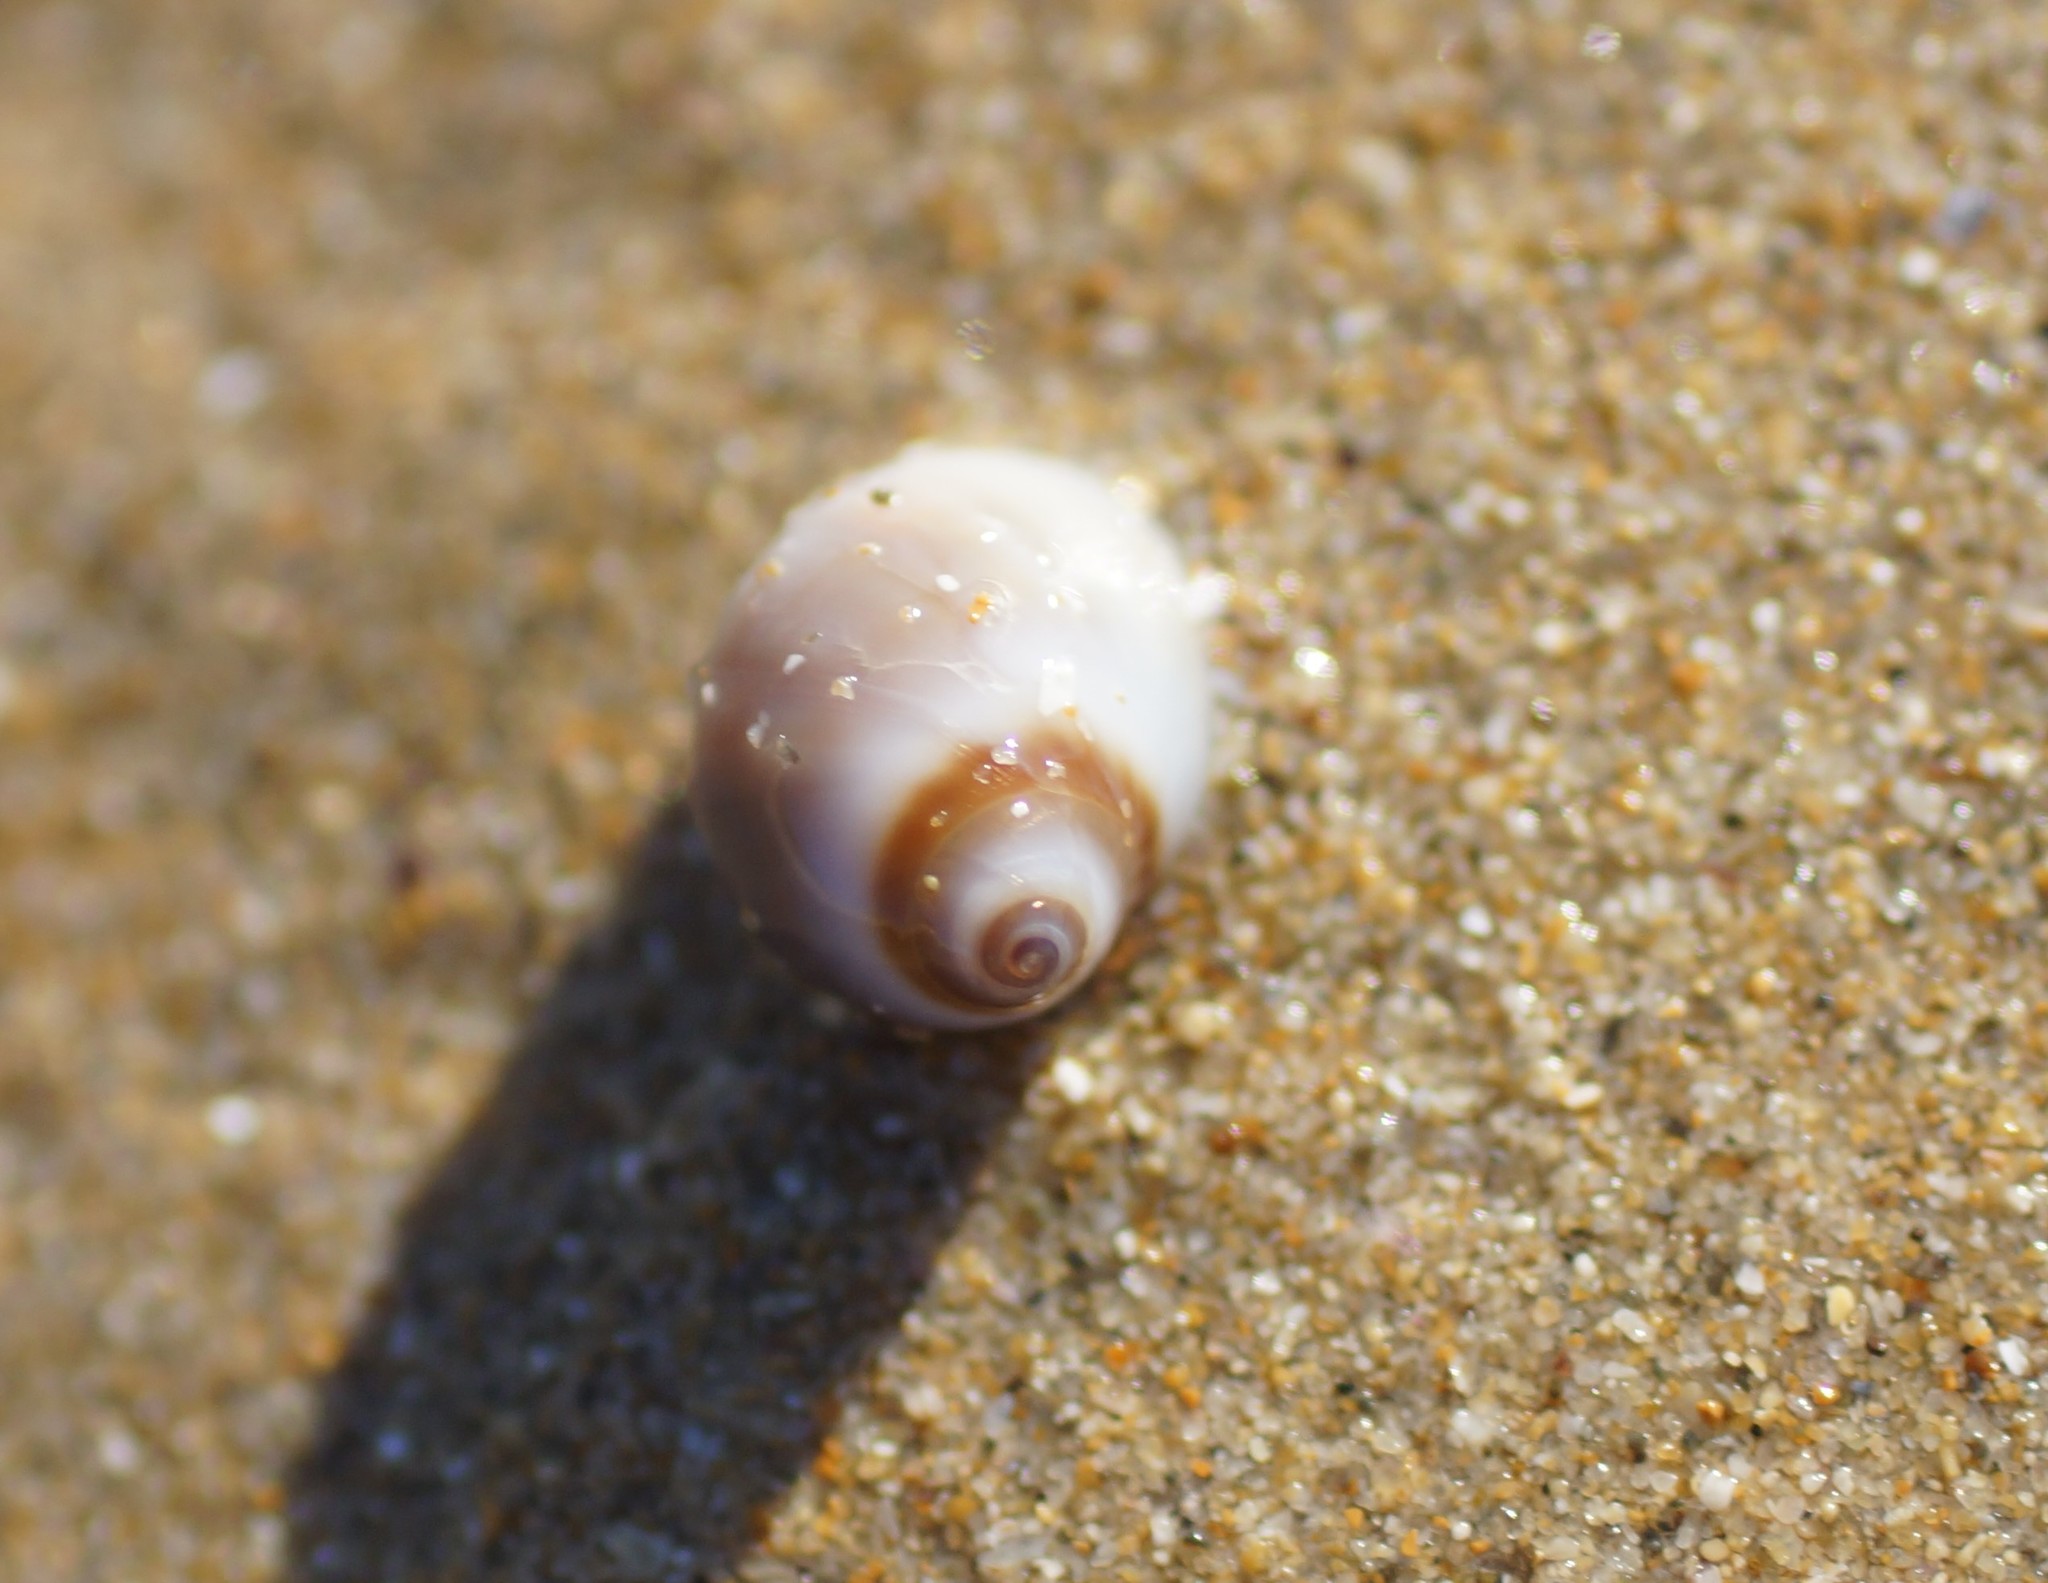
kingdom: Animalia
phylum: Mollusca
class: Gastropoda
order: Littorinimorpha
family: Naticidae
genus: Conuber
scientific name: Conuber conicum
